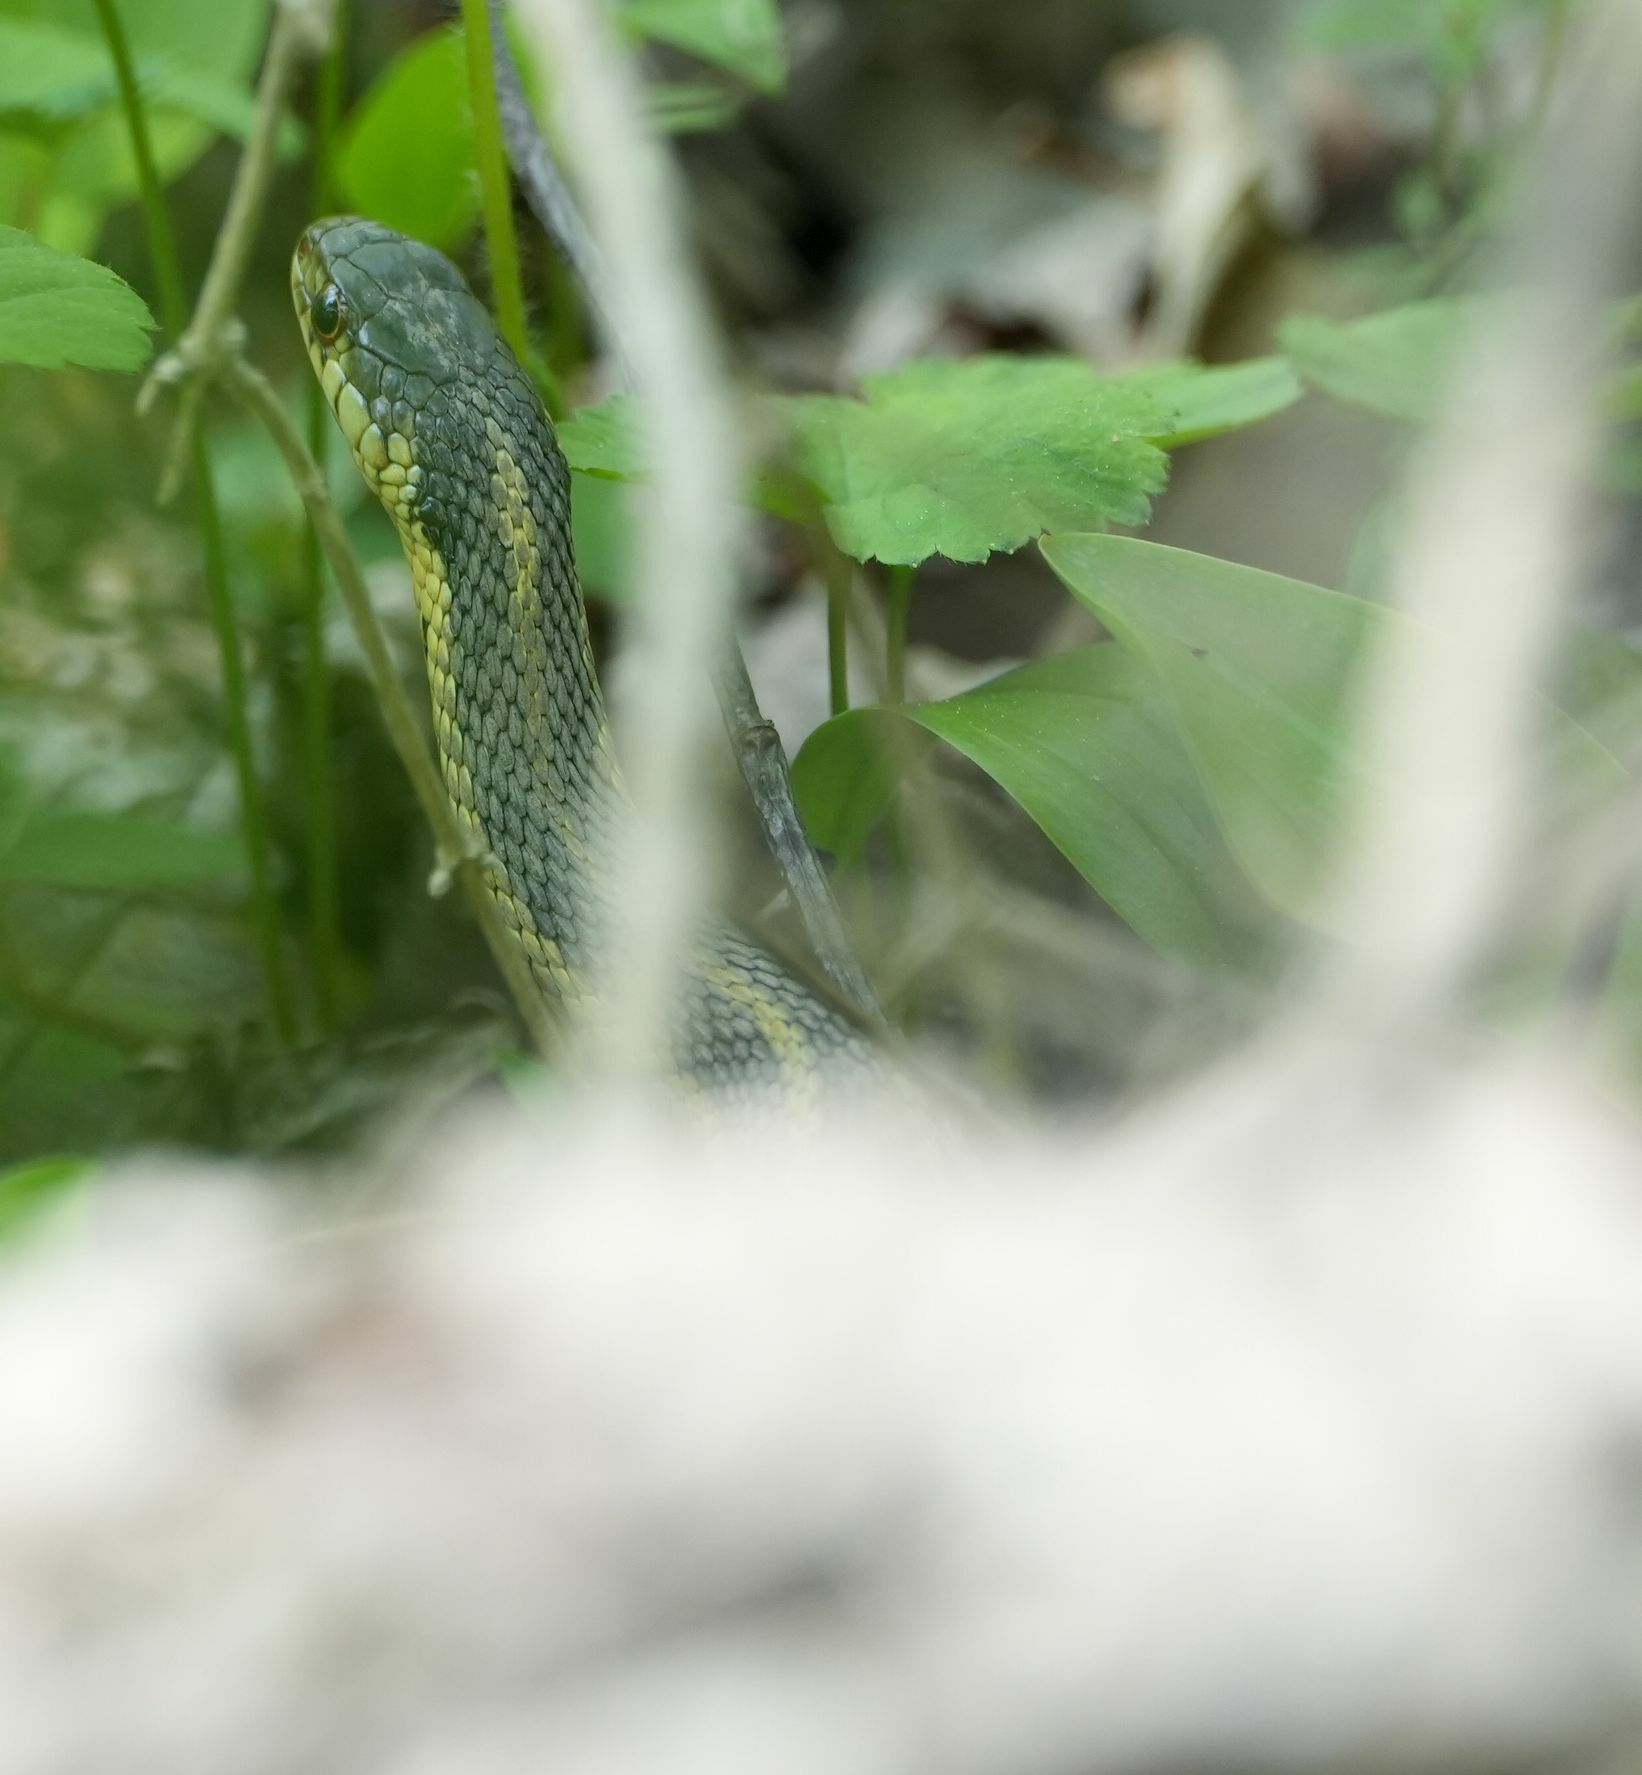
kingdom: Animalia
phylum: Chordata
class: Squamata
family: Colubridae
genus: Thamnophis
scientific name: Thamnophis sirtalis
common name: Common garter snake
